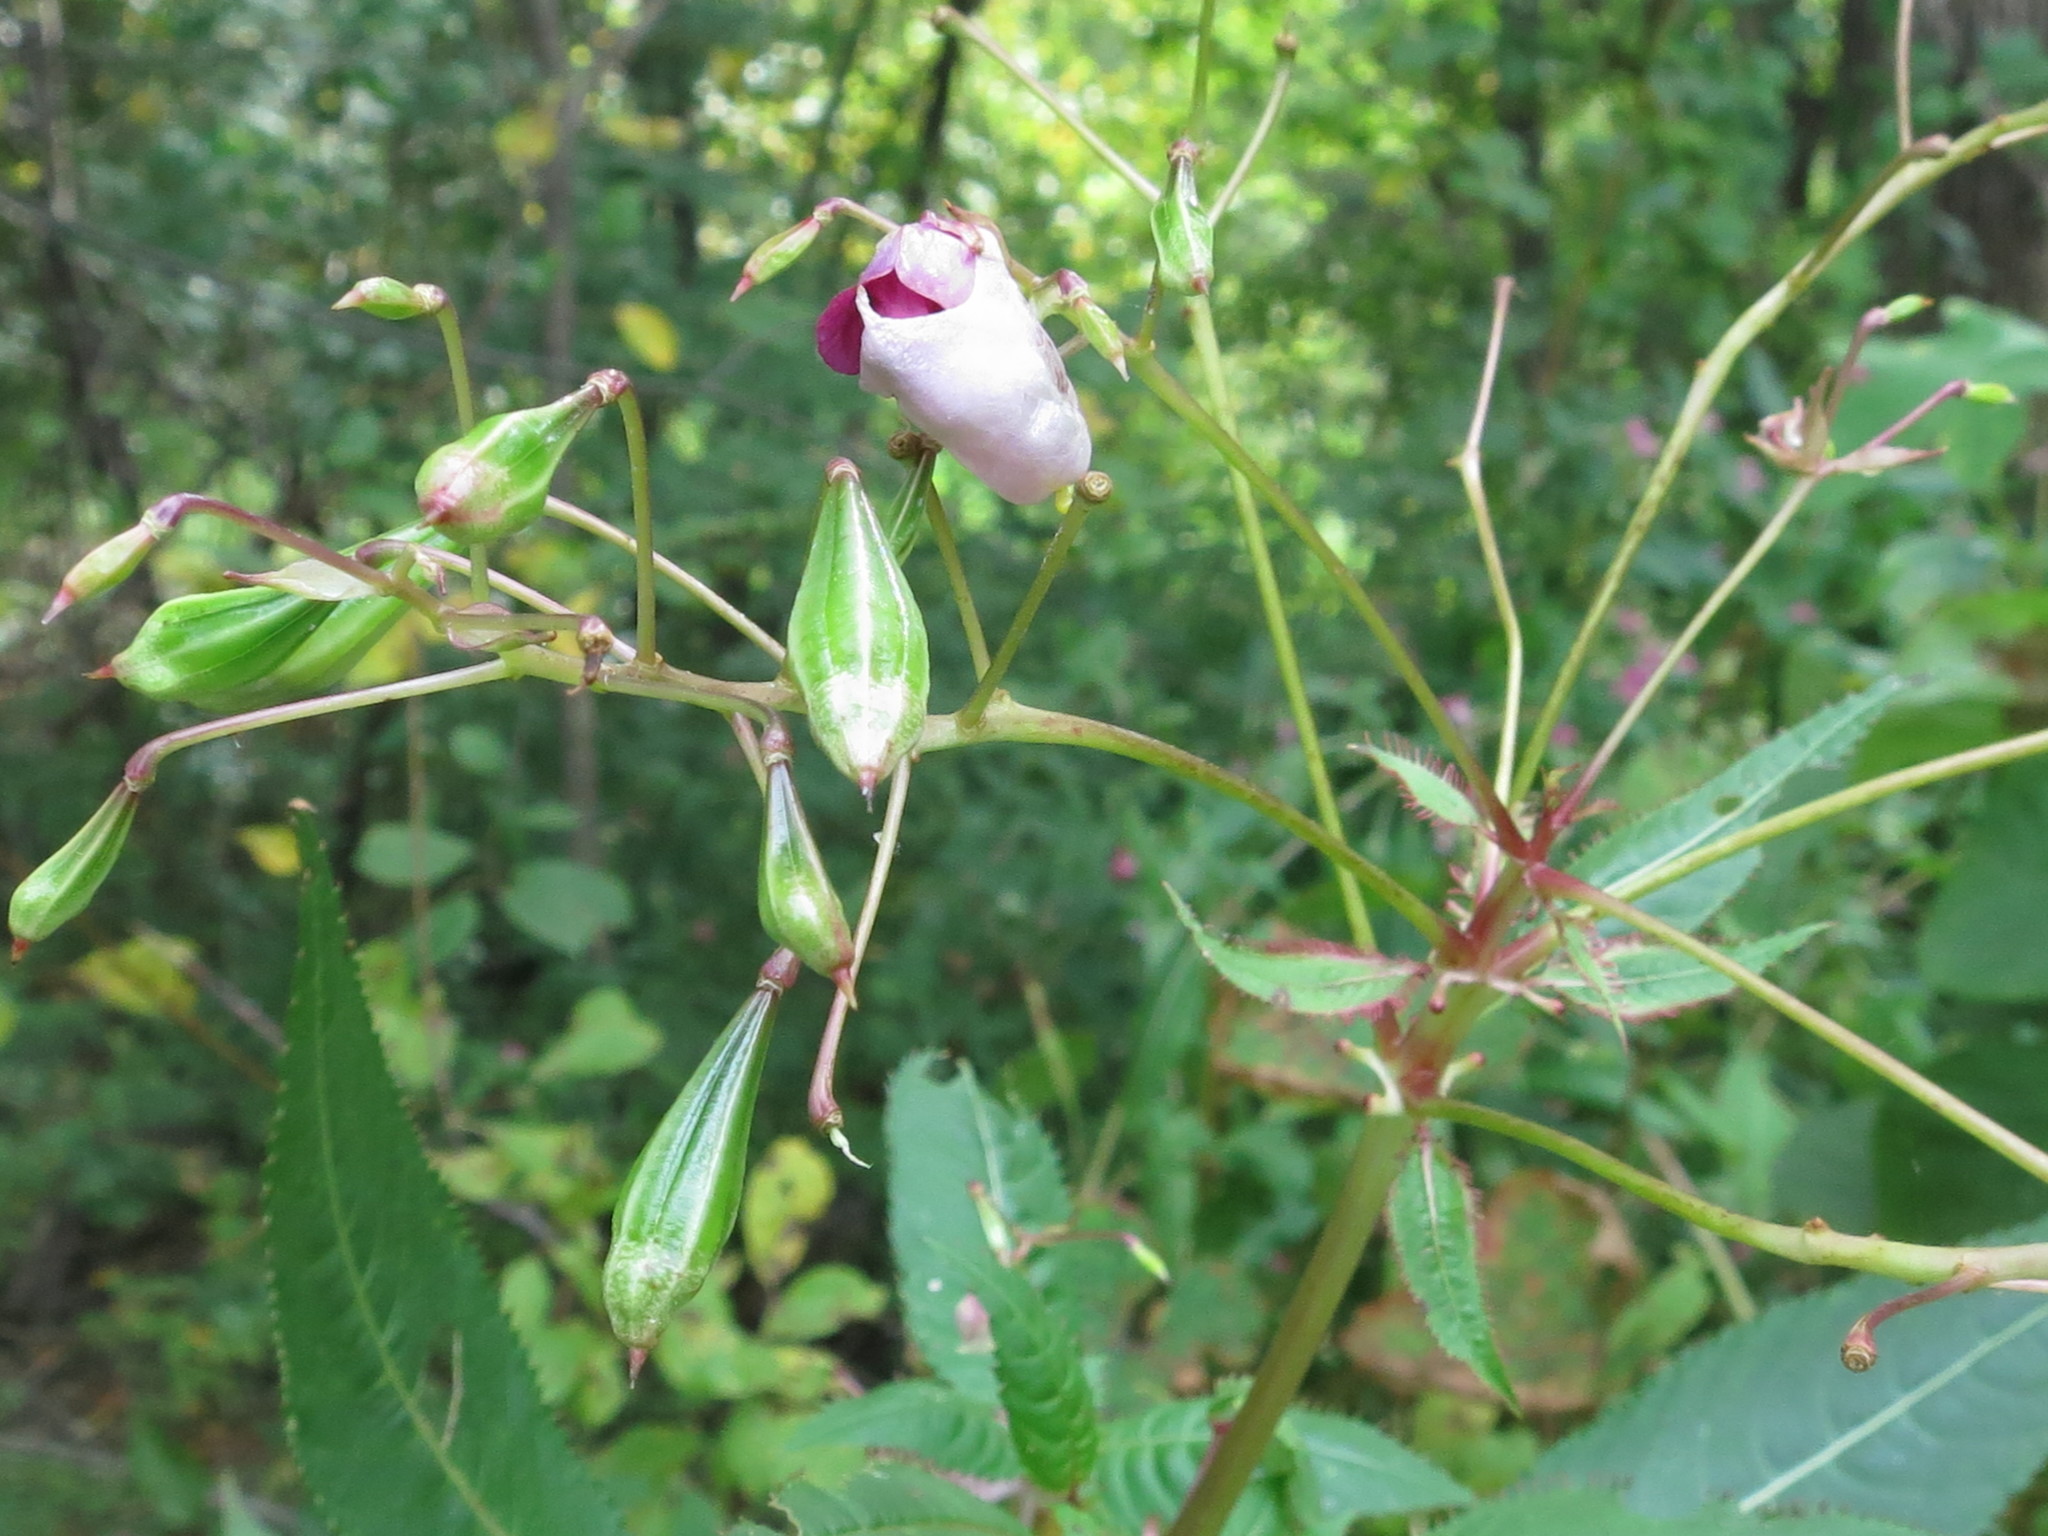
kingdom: Plantae
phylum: Tracheophyta
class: Magnoliopsida
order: Ericales
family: Balsaminaceae
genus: Impatiens
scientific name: Impatiens glandulifera
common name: Himalayan balsam
